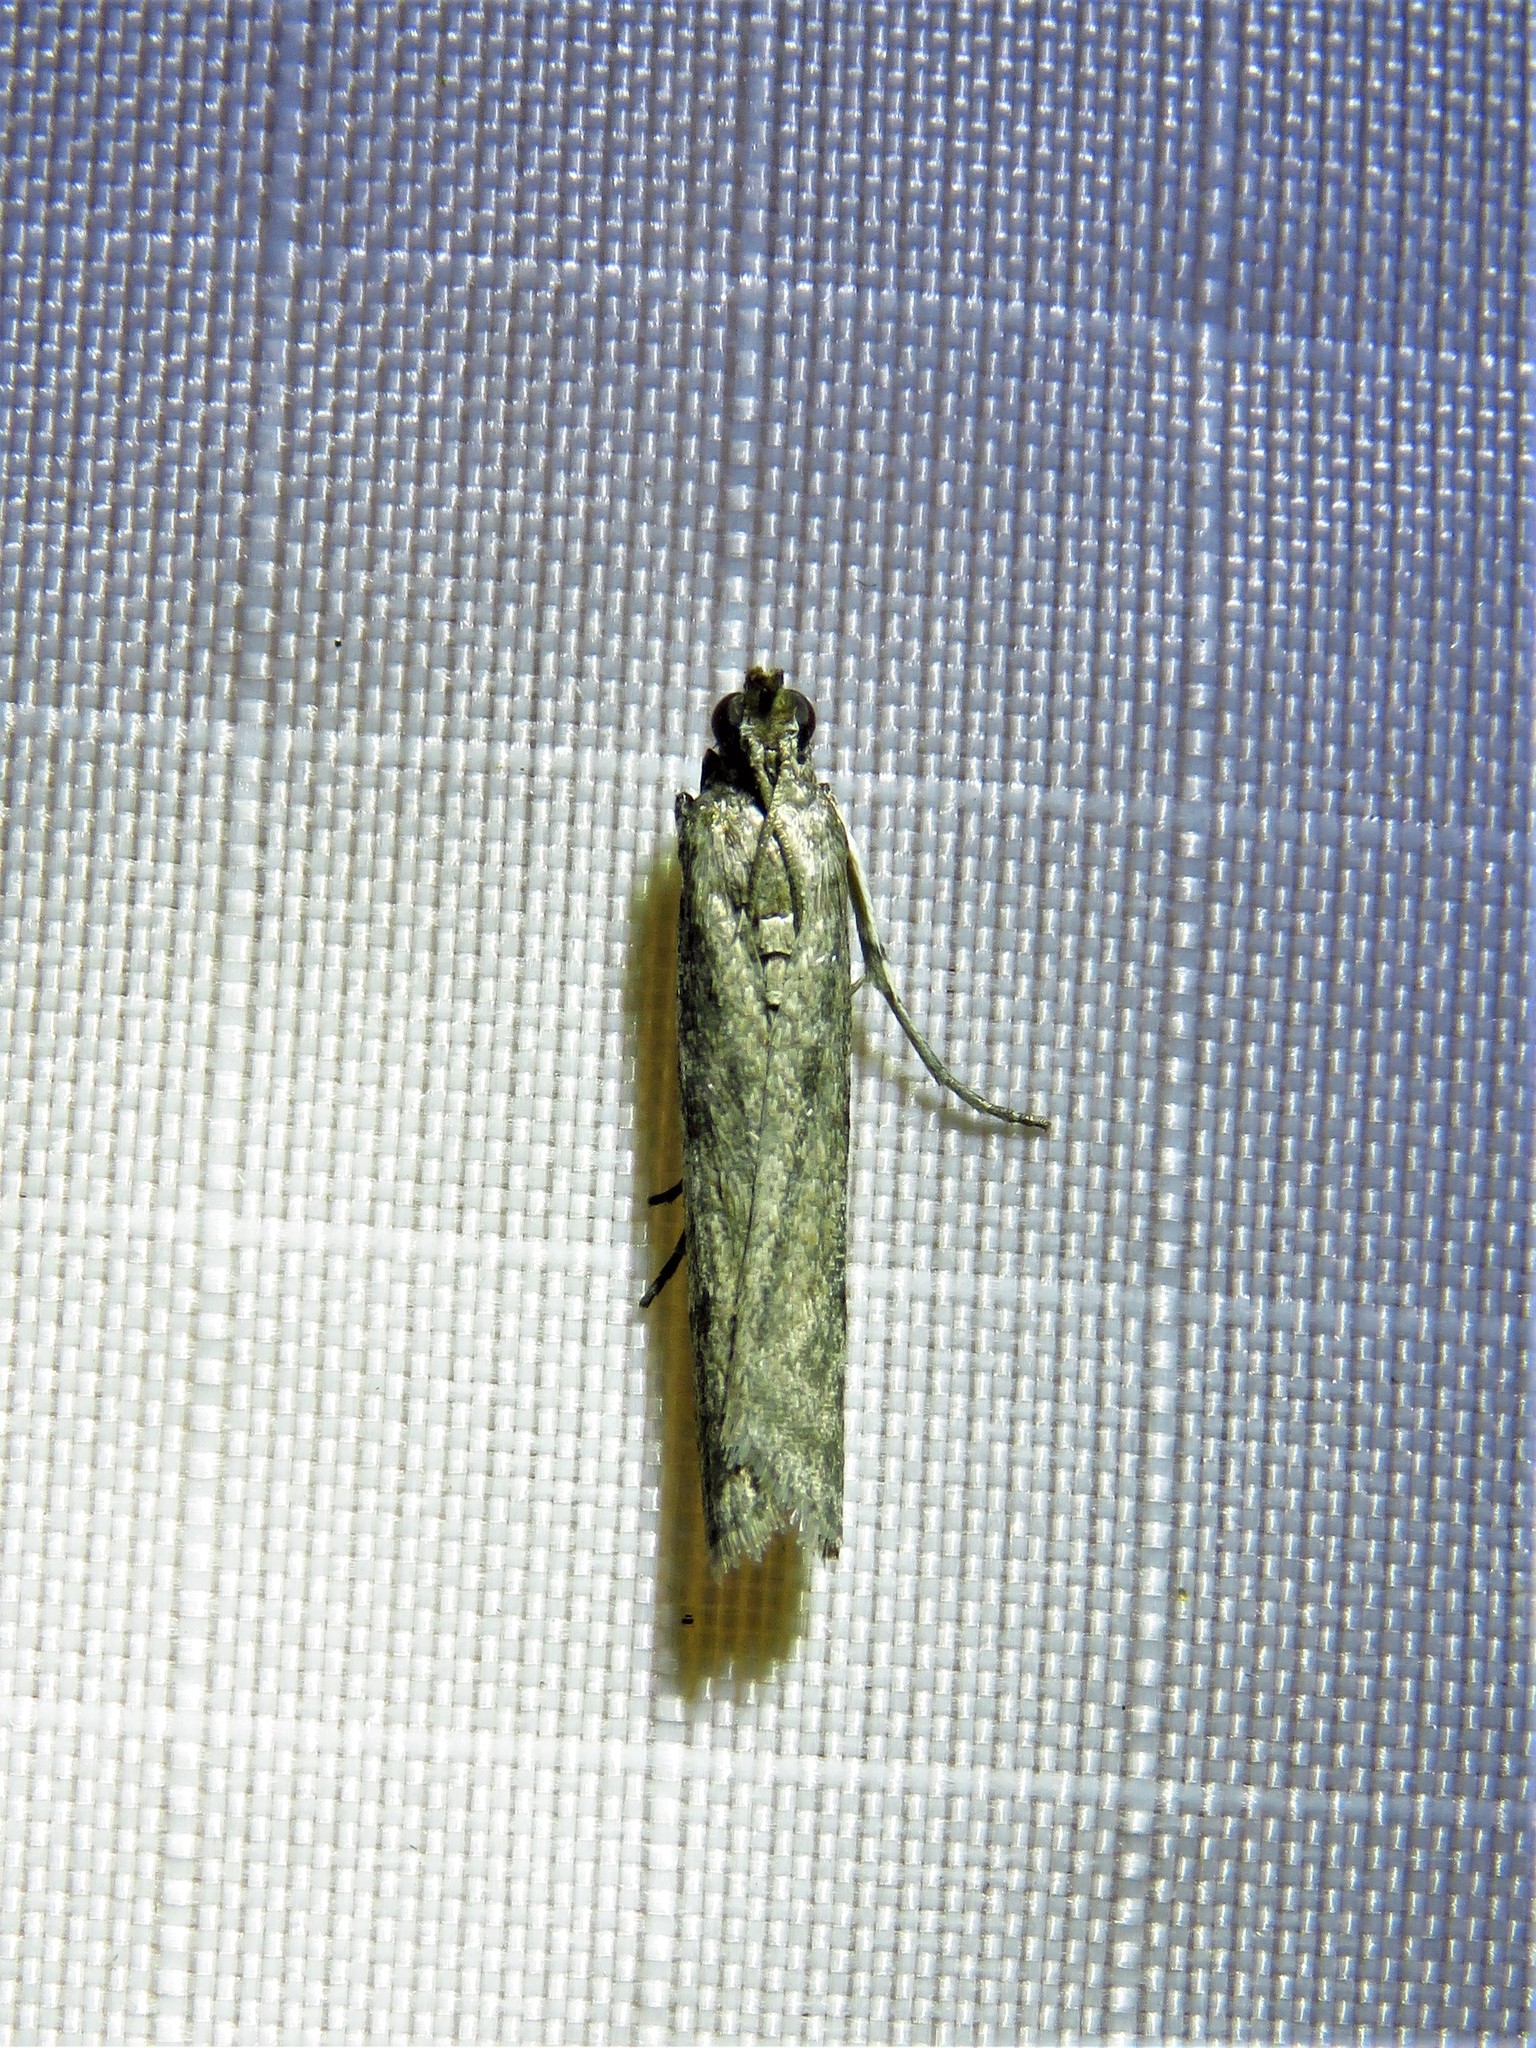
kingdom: Animalia
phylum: Arthropoda
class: Insecta
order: Lepidoptera
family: Pyralidae
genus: Phycitodes
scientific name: Phycitodes mucidellus
